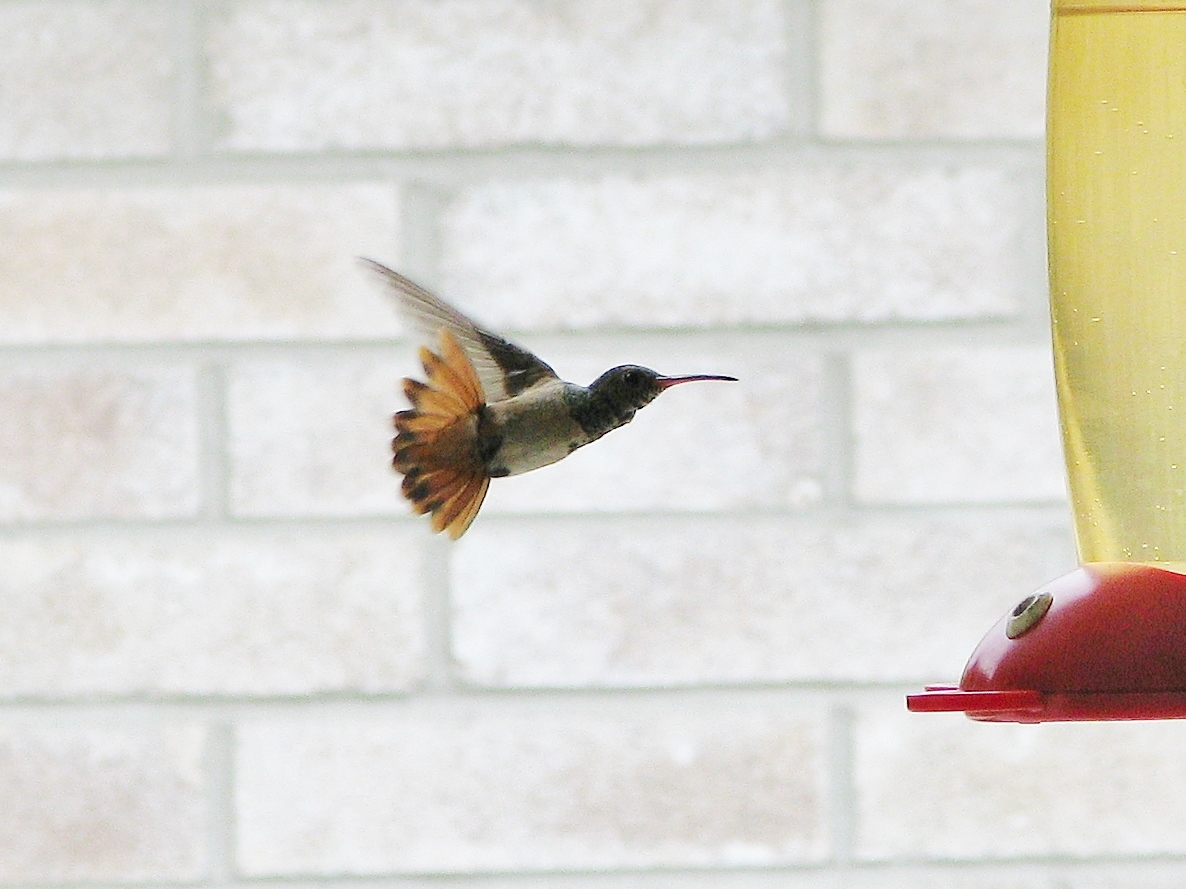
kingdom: Animalia
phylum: Chordata
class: Aves
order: Apodiformes
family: Trochilidae
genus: Amazilia
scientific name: Amazilia yucatanensis
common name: Buff-bellied hummingbird
